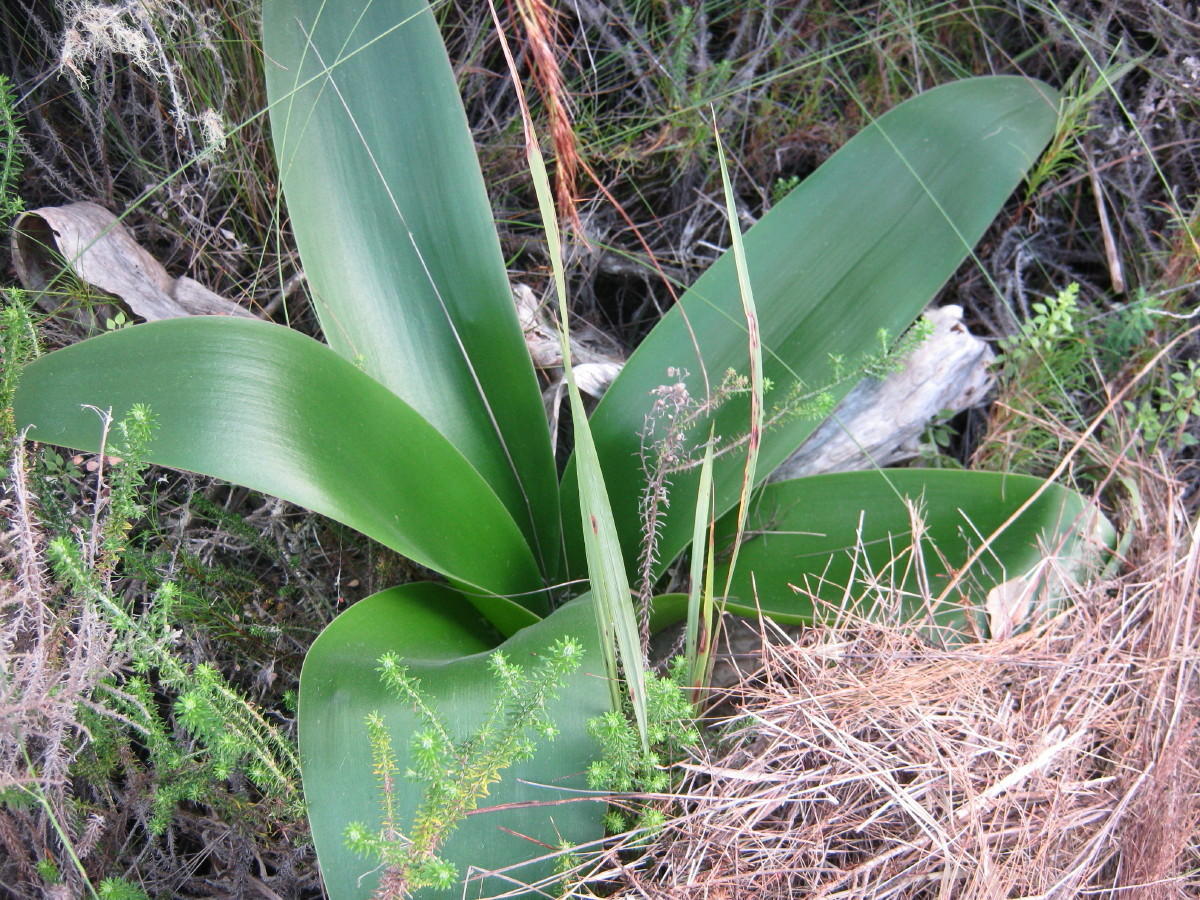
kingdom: Plantae
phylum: Tracheophyta
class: Liliopsida
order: Asparagales
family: Amaryllidaceae
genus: Brunsvigia
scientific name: Brunsvigia orientalis
